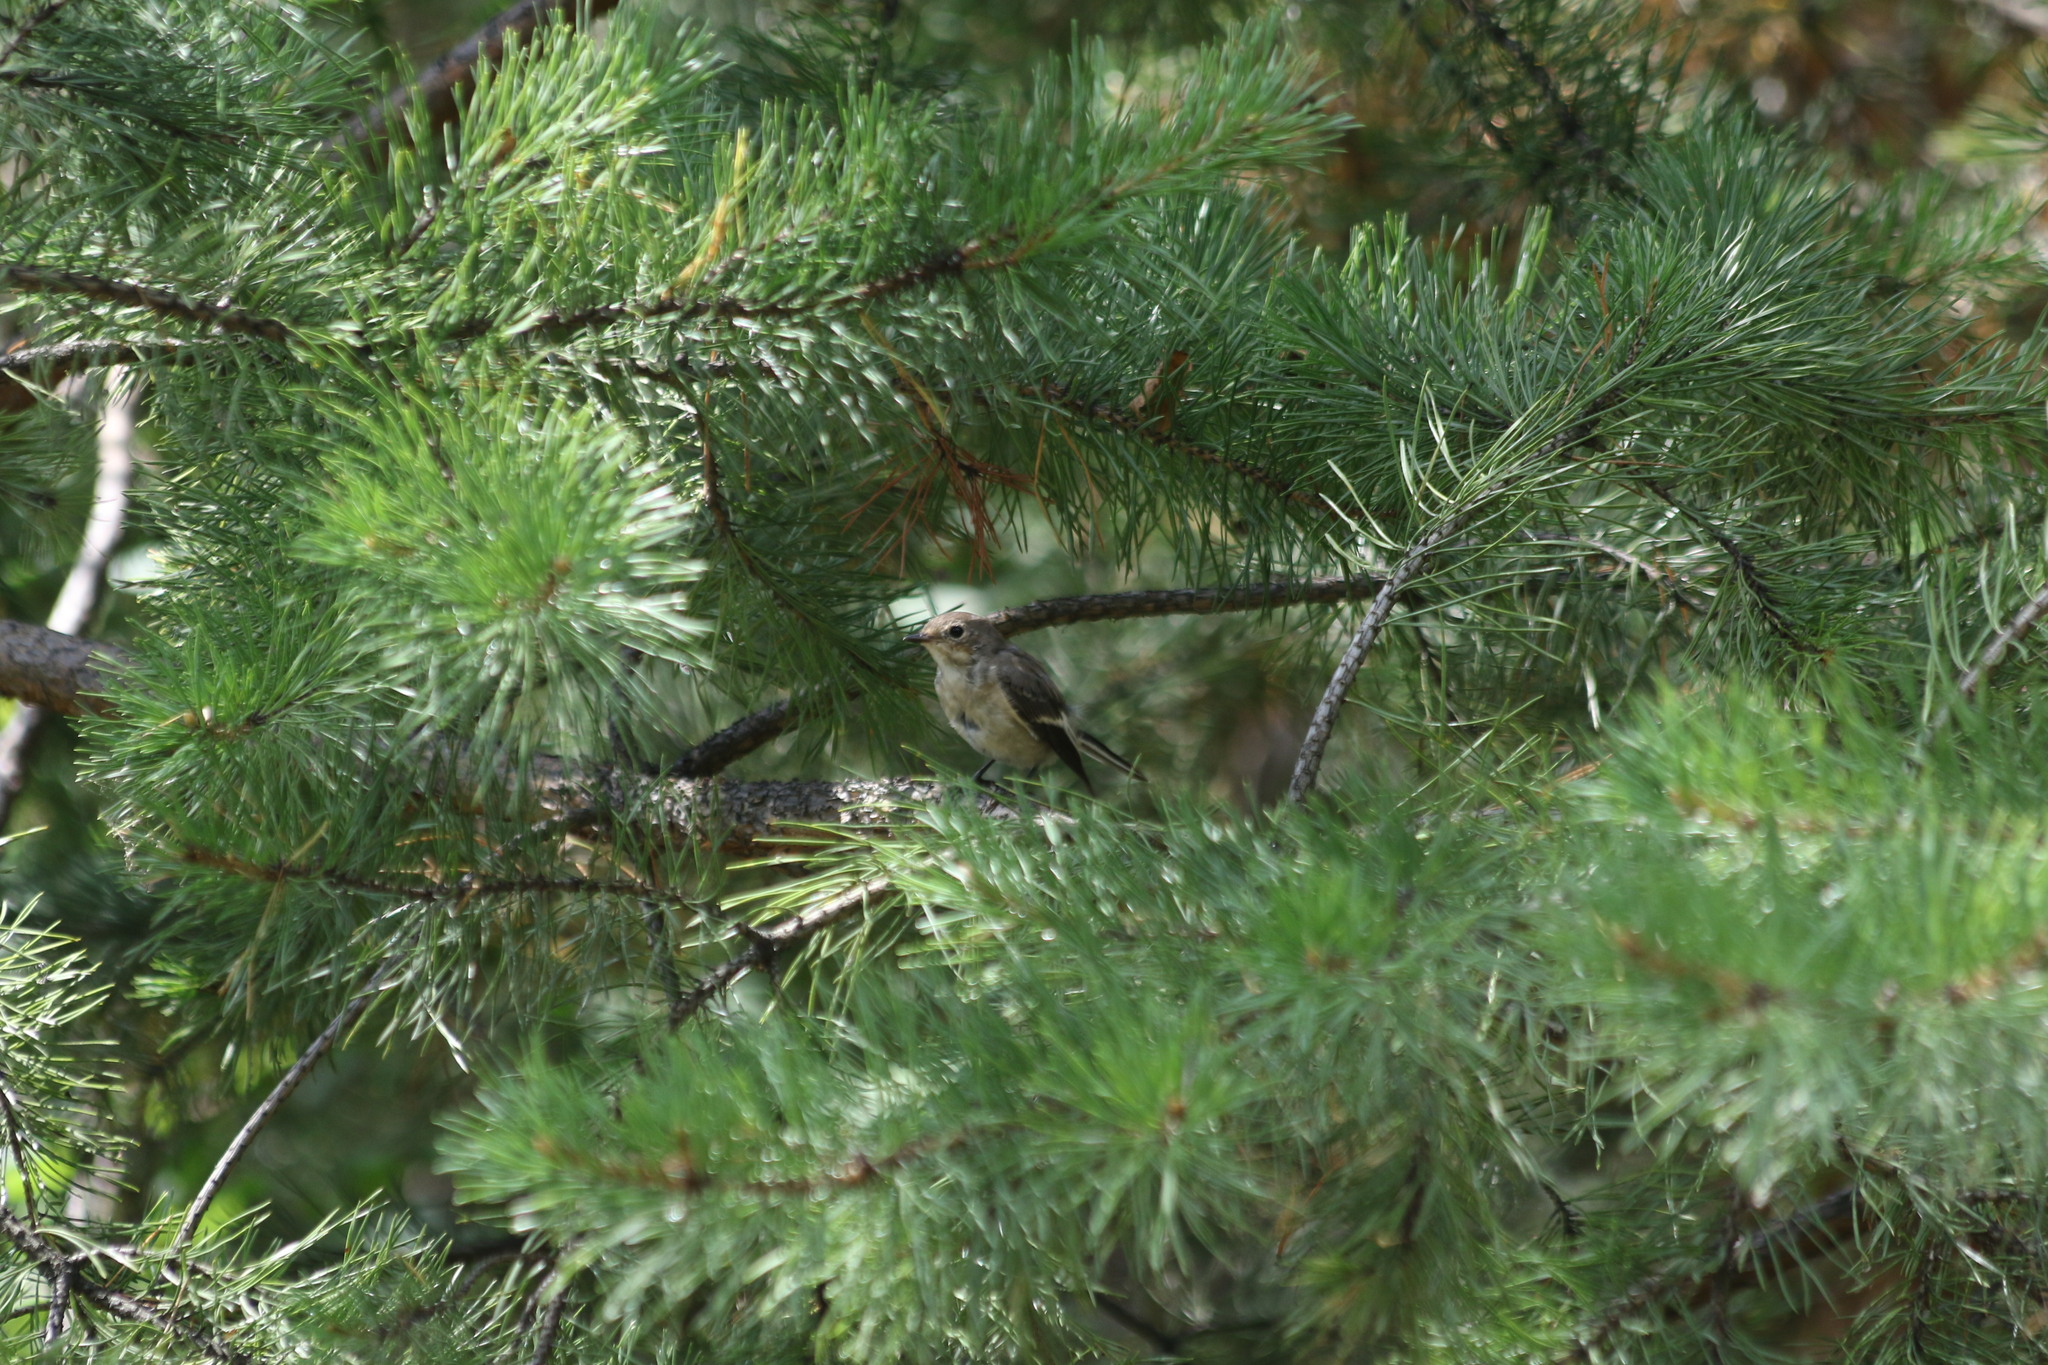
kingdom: Animalia
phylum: Chordata
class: Aves
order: Passeriformes
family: Muscicapidae
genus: Ficedula
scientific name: Ficedula hypoleuca
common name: European pied flycatcher
